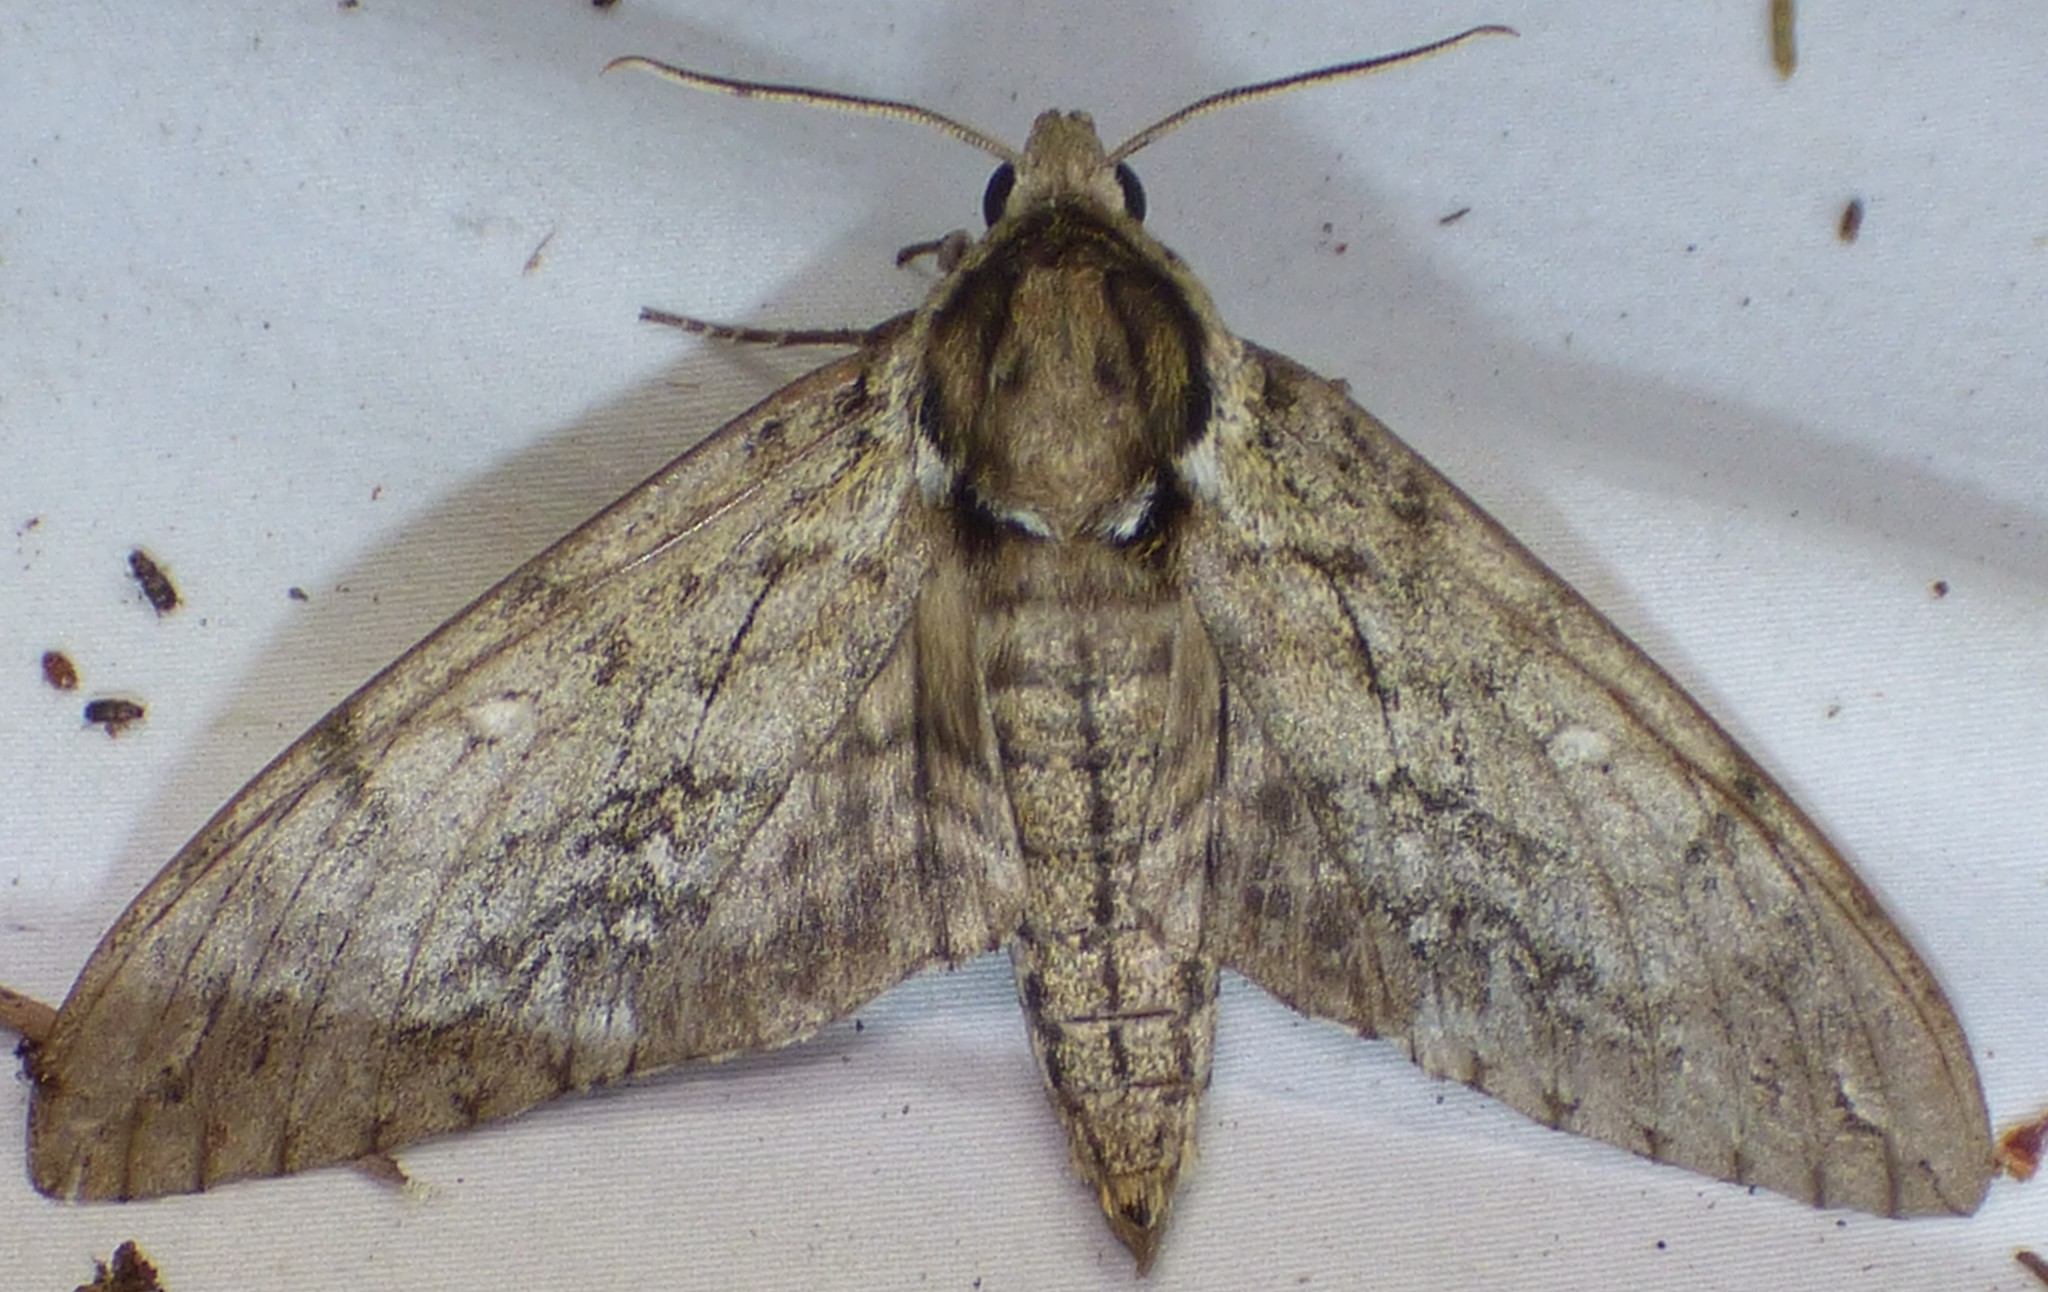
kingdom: Animalia
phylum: Arthropoda
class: Insecta
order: Lepidoptera
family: Sphingidae
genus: Ceratomia
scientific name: Ceratomia undulosa
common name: Waved sphinx
